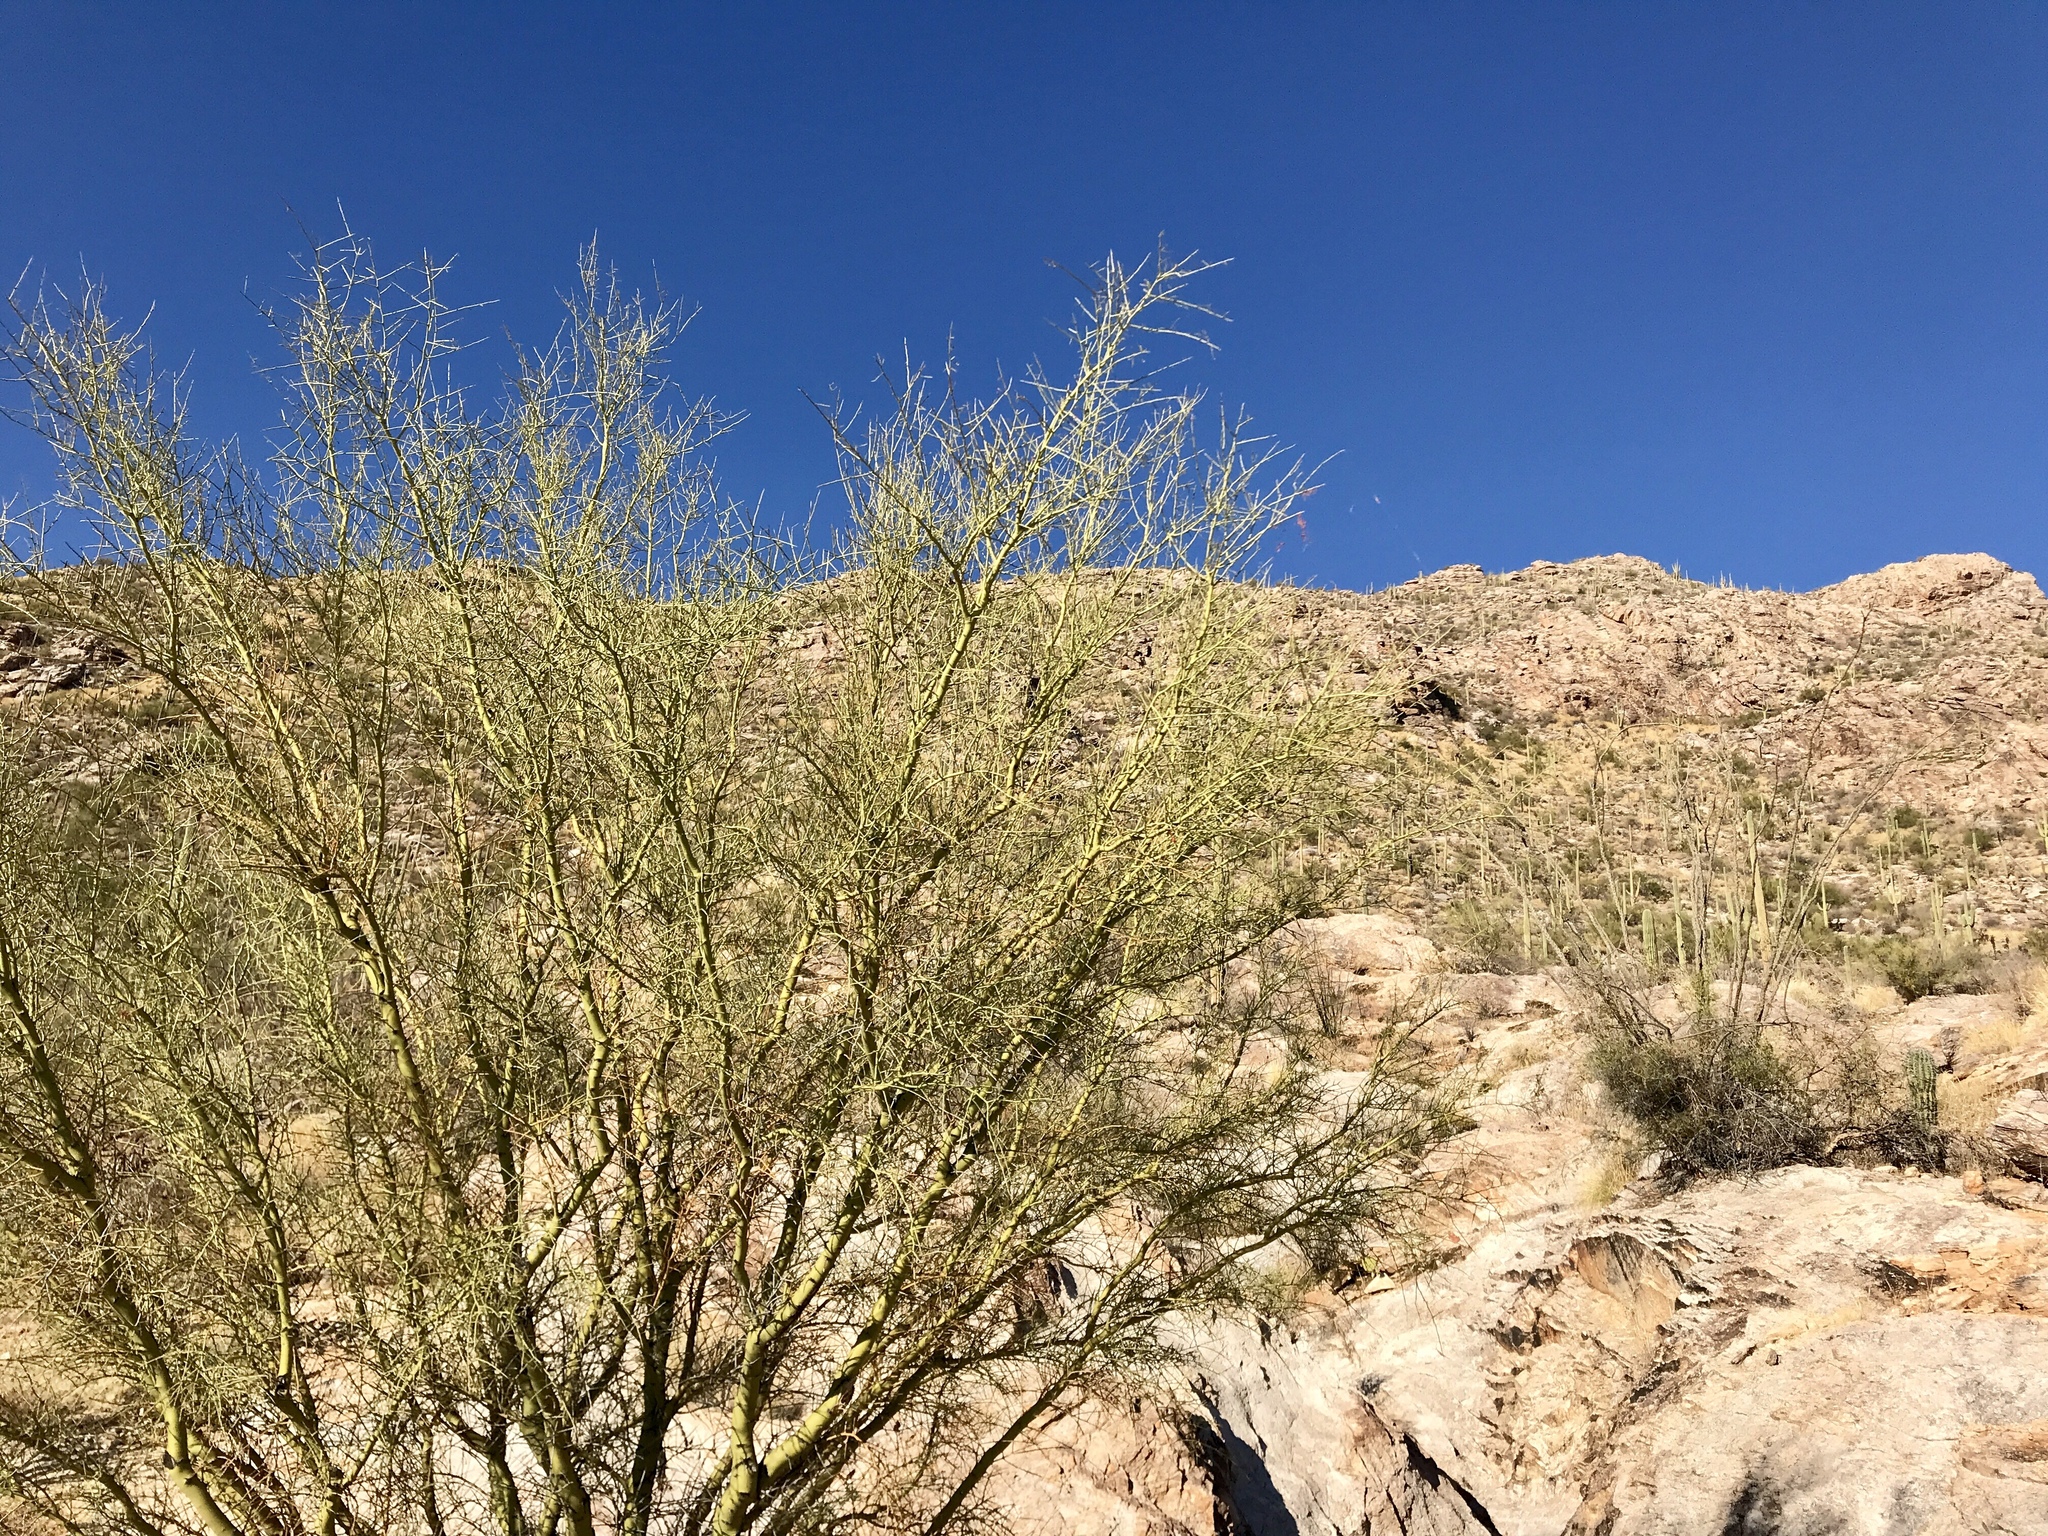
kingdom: Plantae
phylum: Tracheophyta
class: Magnoliopsida
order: Fabales
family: Fabaceae
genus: Parkinsonia
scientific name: Parkinsonia microphylla
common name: Yellow paloverde
